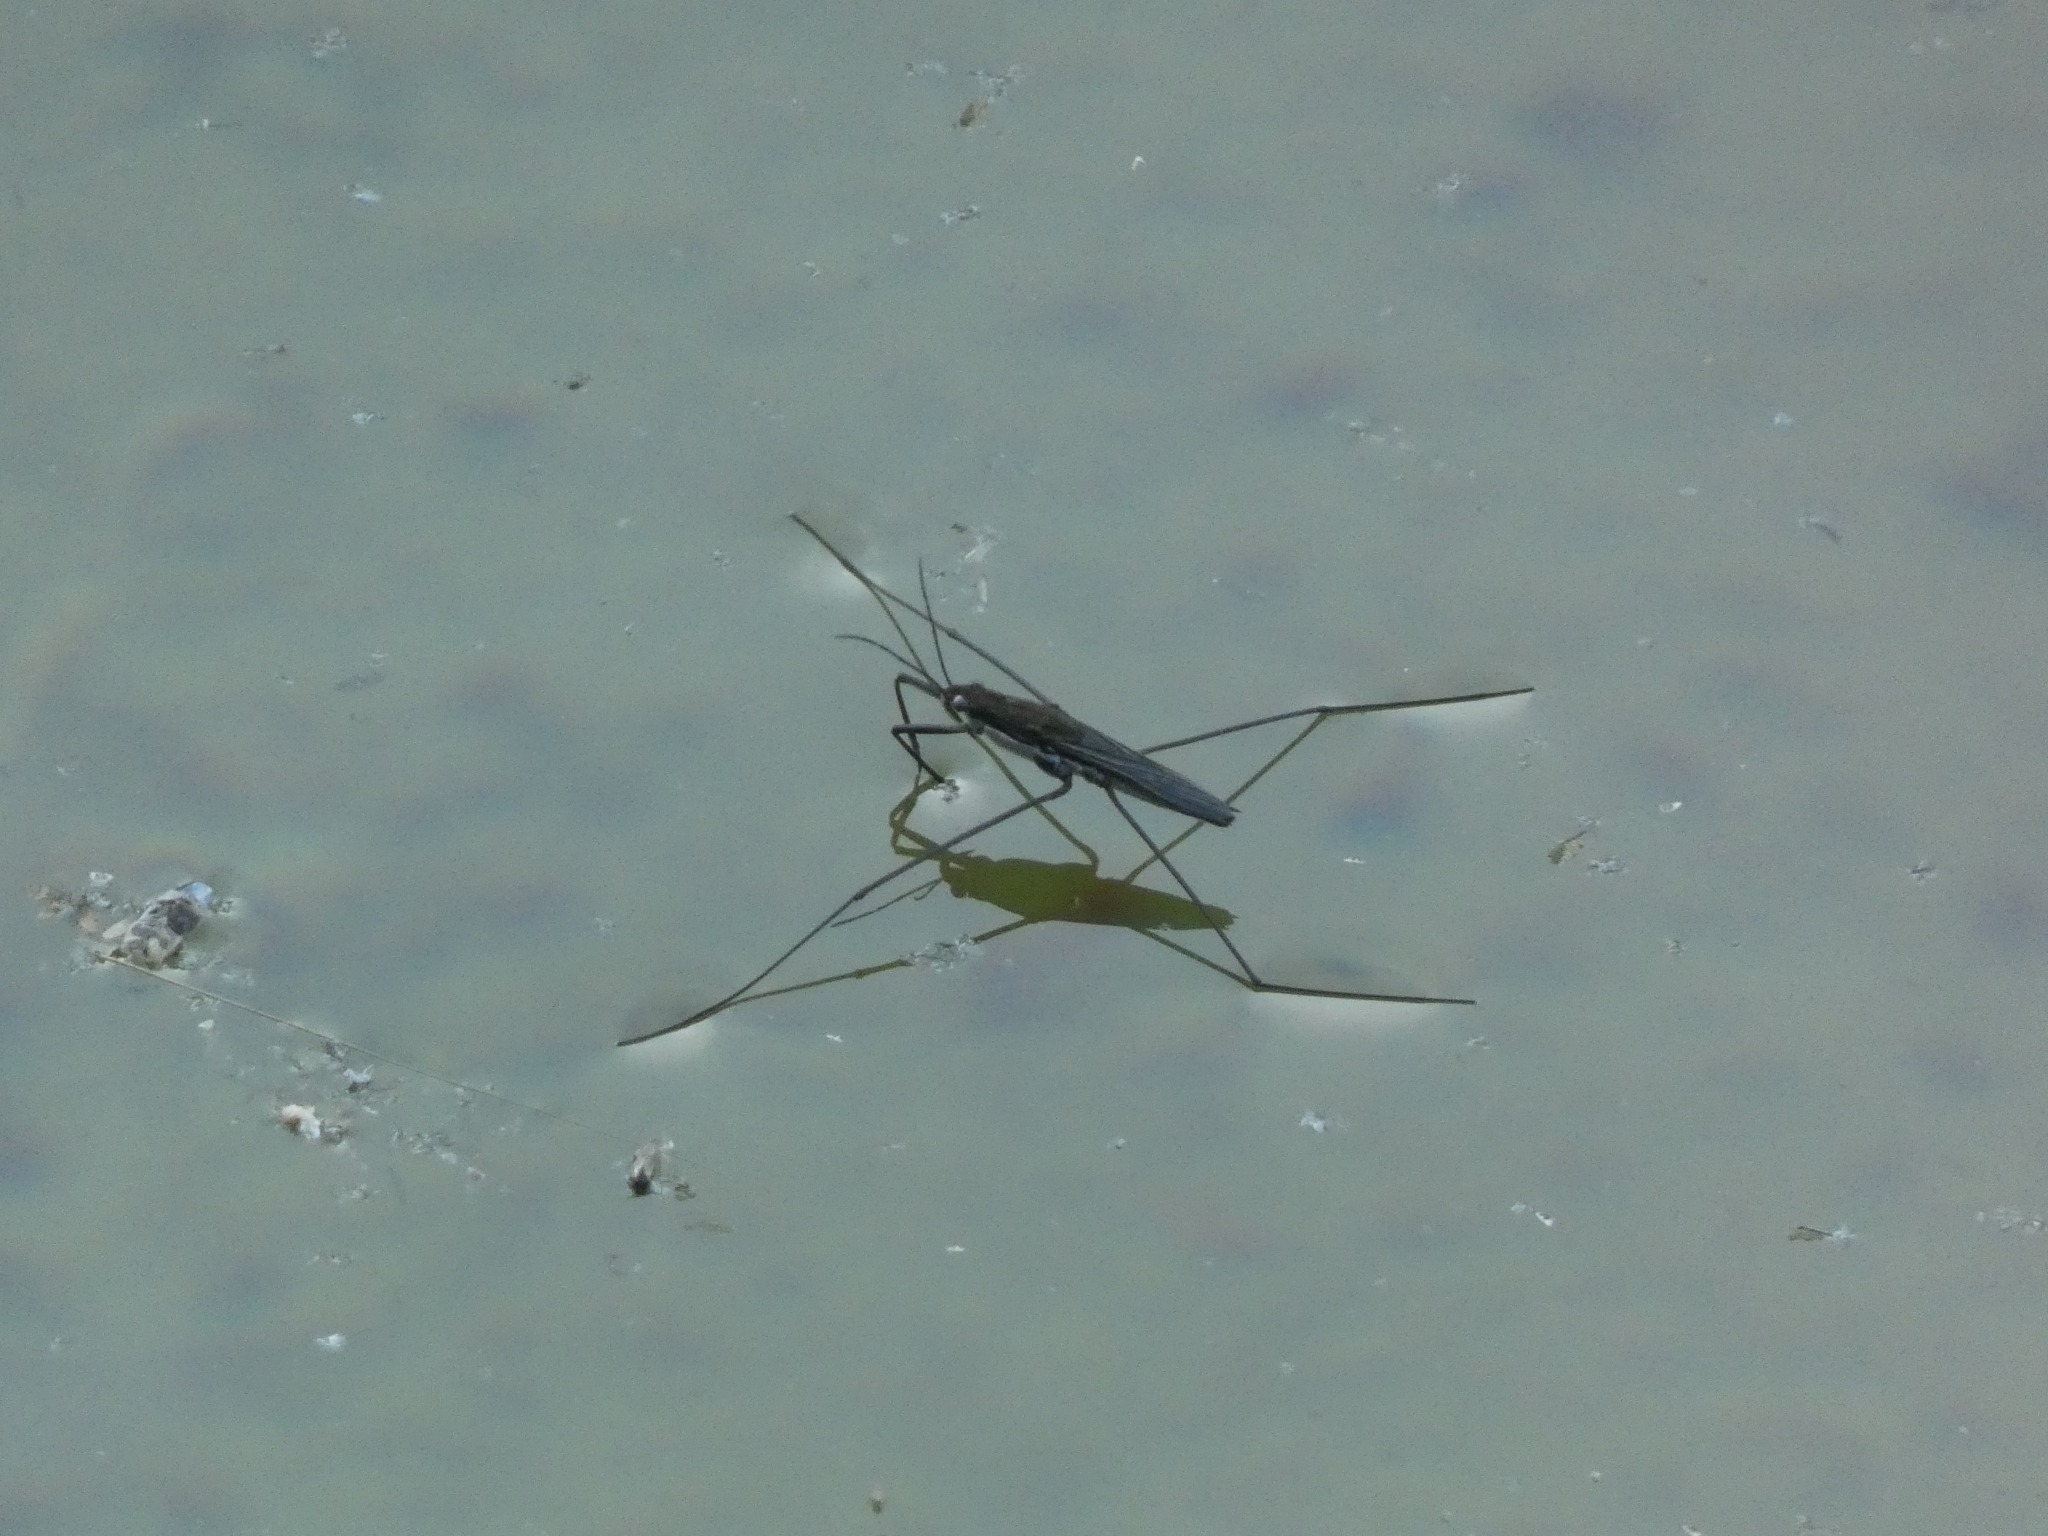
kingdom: Animalia
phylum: Arthropoda
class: Insecta
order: Hemiptera
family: Gerridae
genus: Aquarius
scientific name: Aquarius paludum
